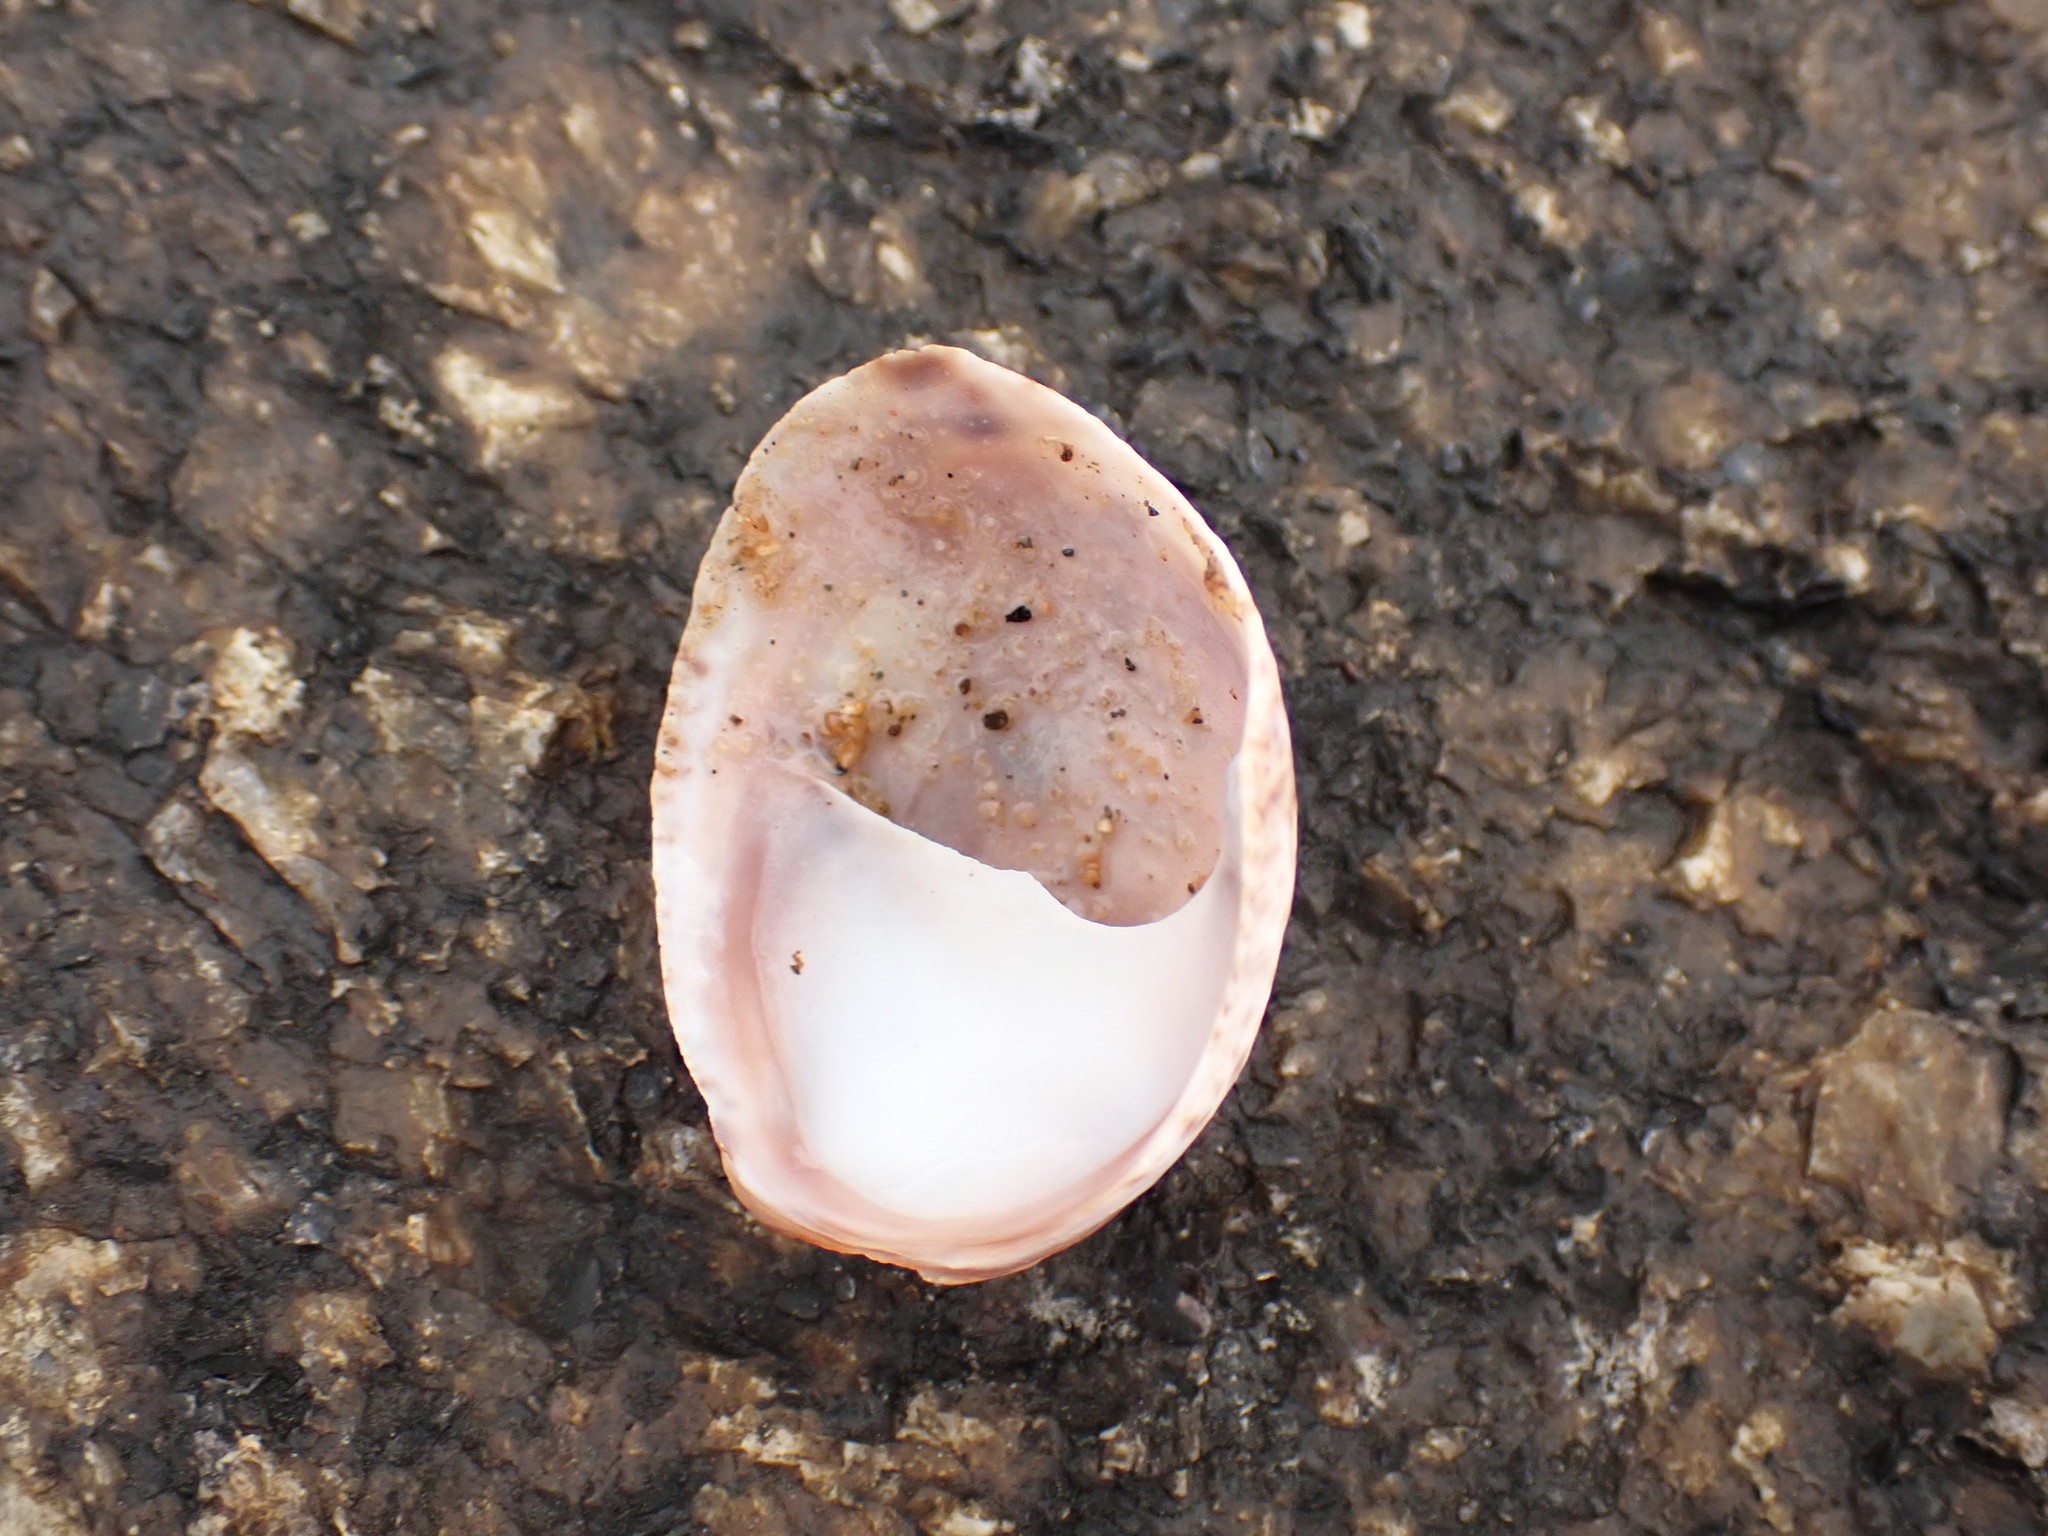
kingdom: Animalia
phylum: Mollusca
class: Gastropoda
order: Littorinimorpha
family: Calyptraeidae
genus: Crepidula
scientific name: Crepidula fornicata
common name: Slipper limpet
